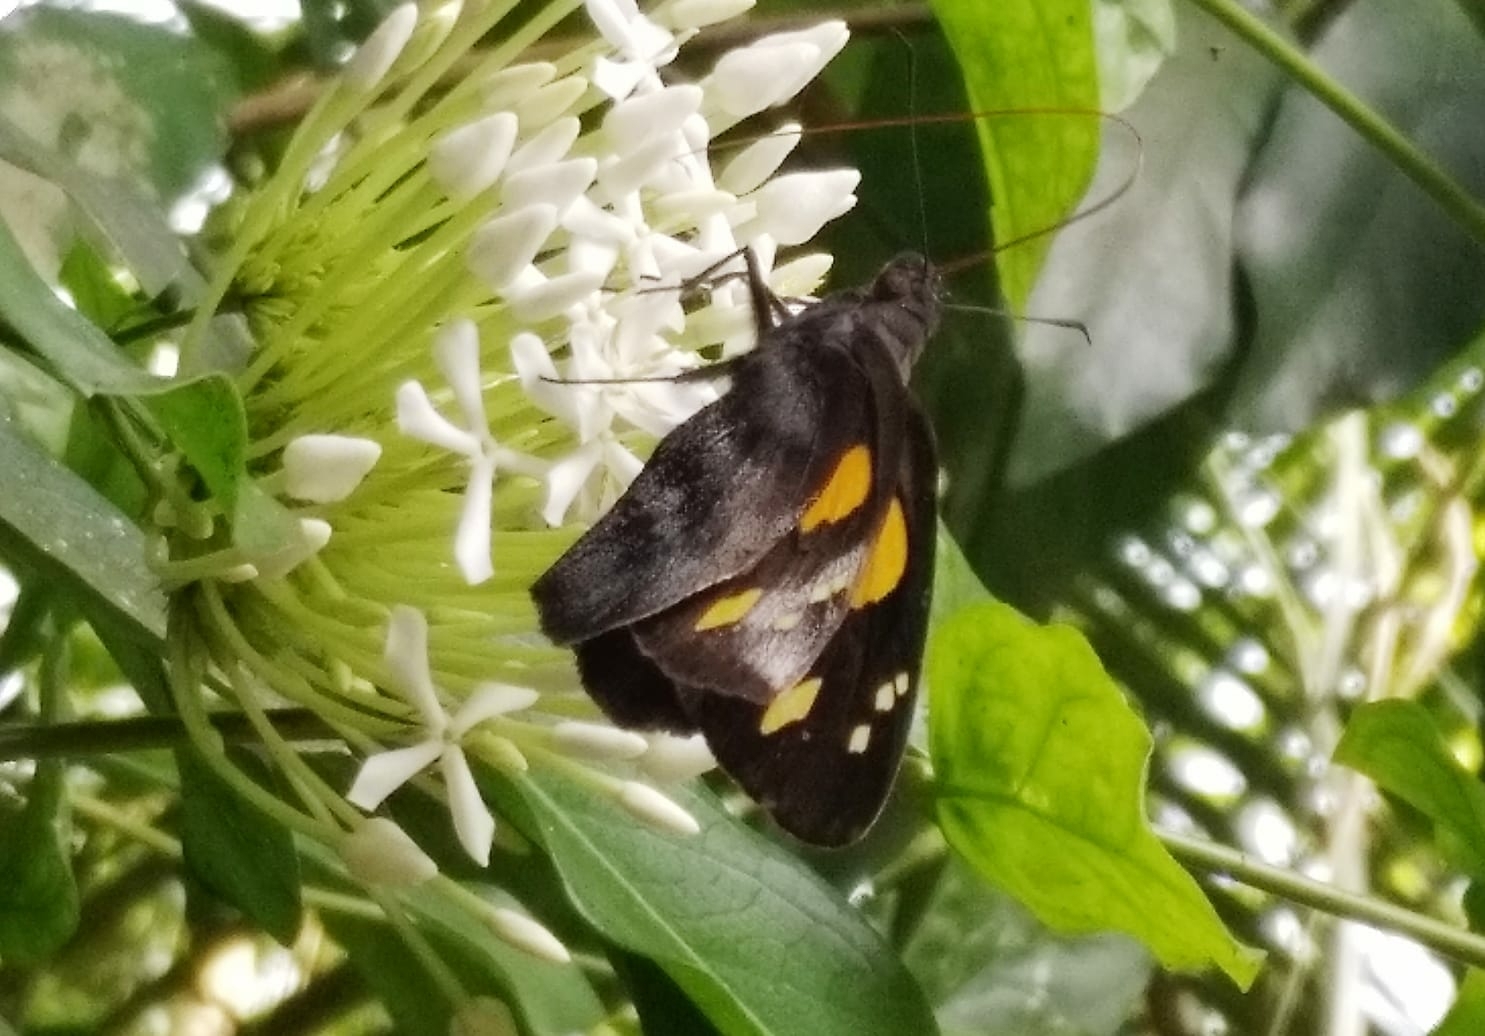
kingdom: Animalia
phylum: Arthropoda
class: Insecta
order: Lepidoptera
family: Hesperiidae
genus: Gangara
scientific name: Gangara thyrsis
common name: Giant redeye
